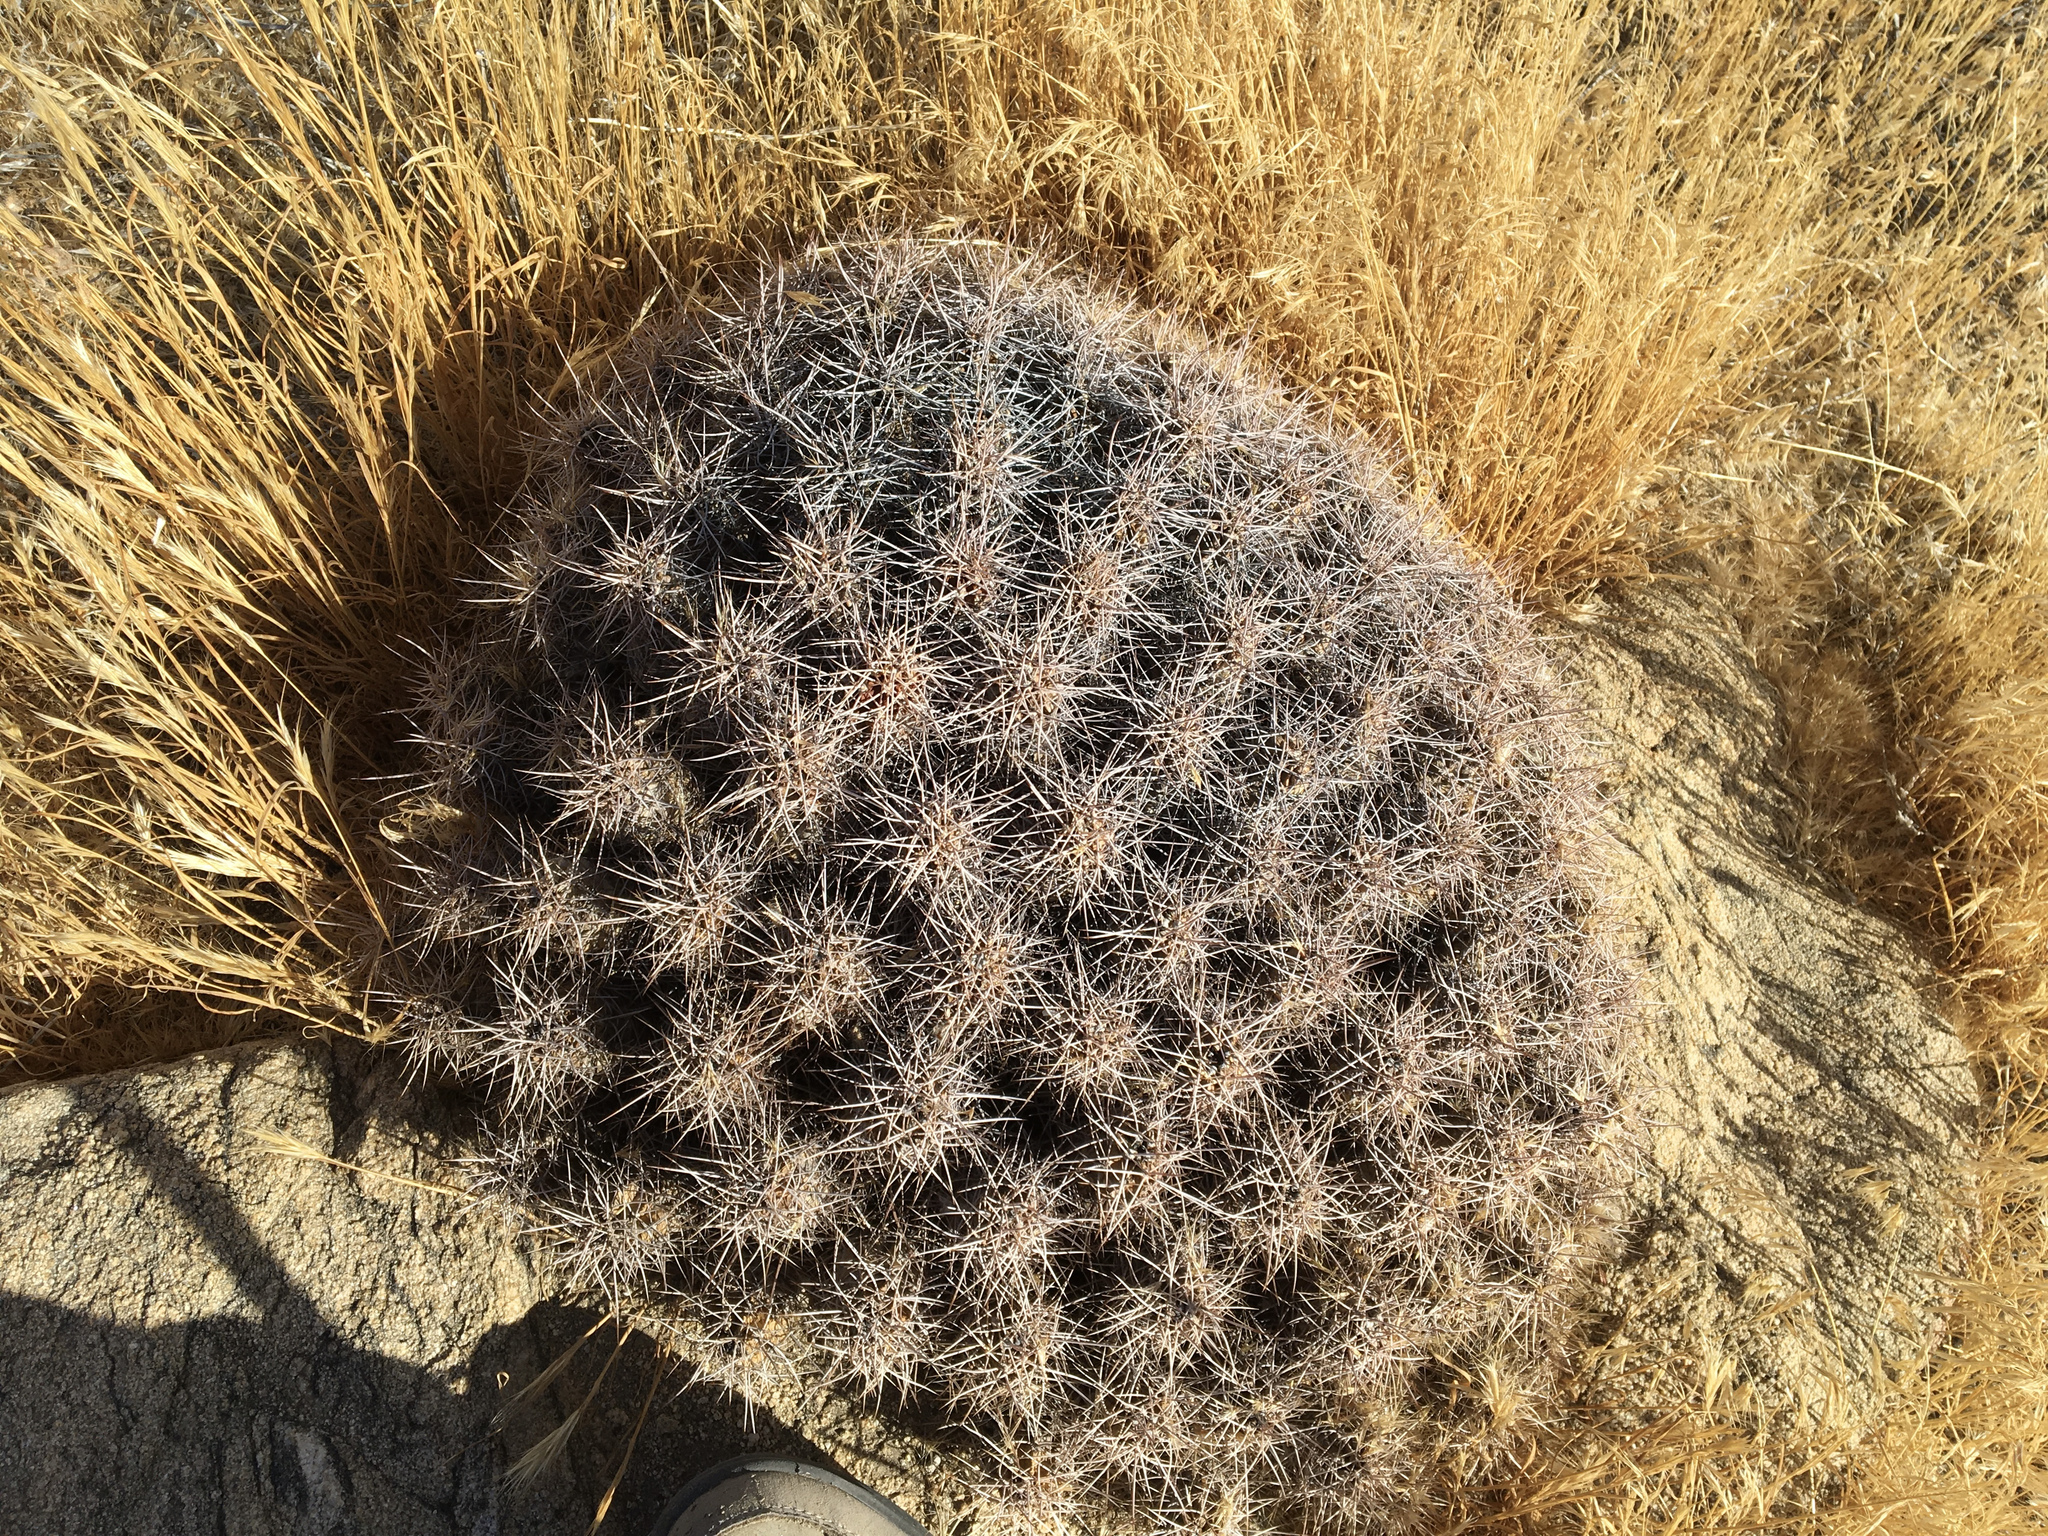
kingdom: Plantae
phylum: Tracheophyta
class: Magnoliopsida
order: Caryophyllales
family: Cactaceae
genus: Echinocereus
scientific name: Echinocereus triglochidiatus
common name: Claretcup hedgehog
